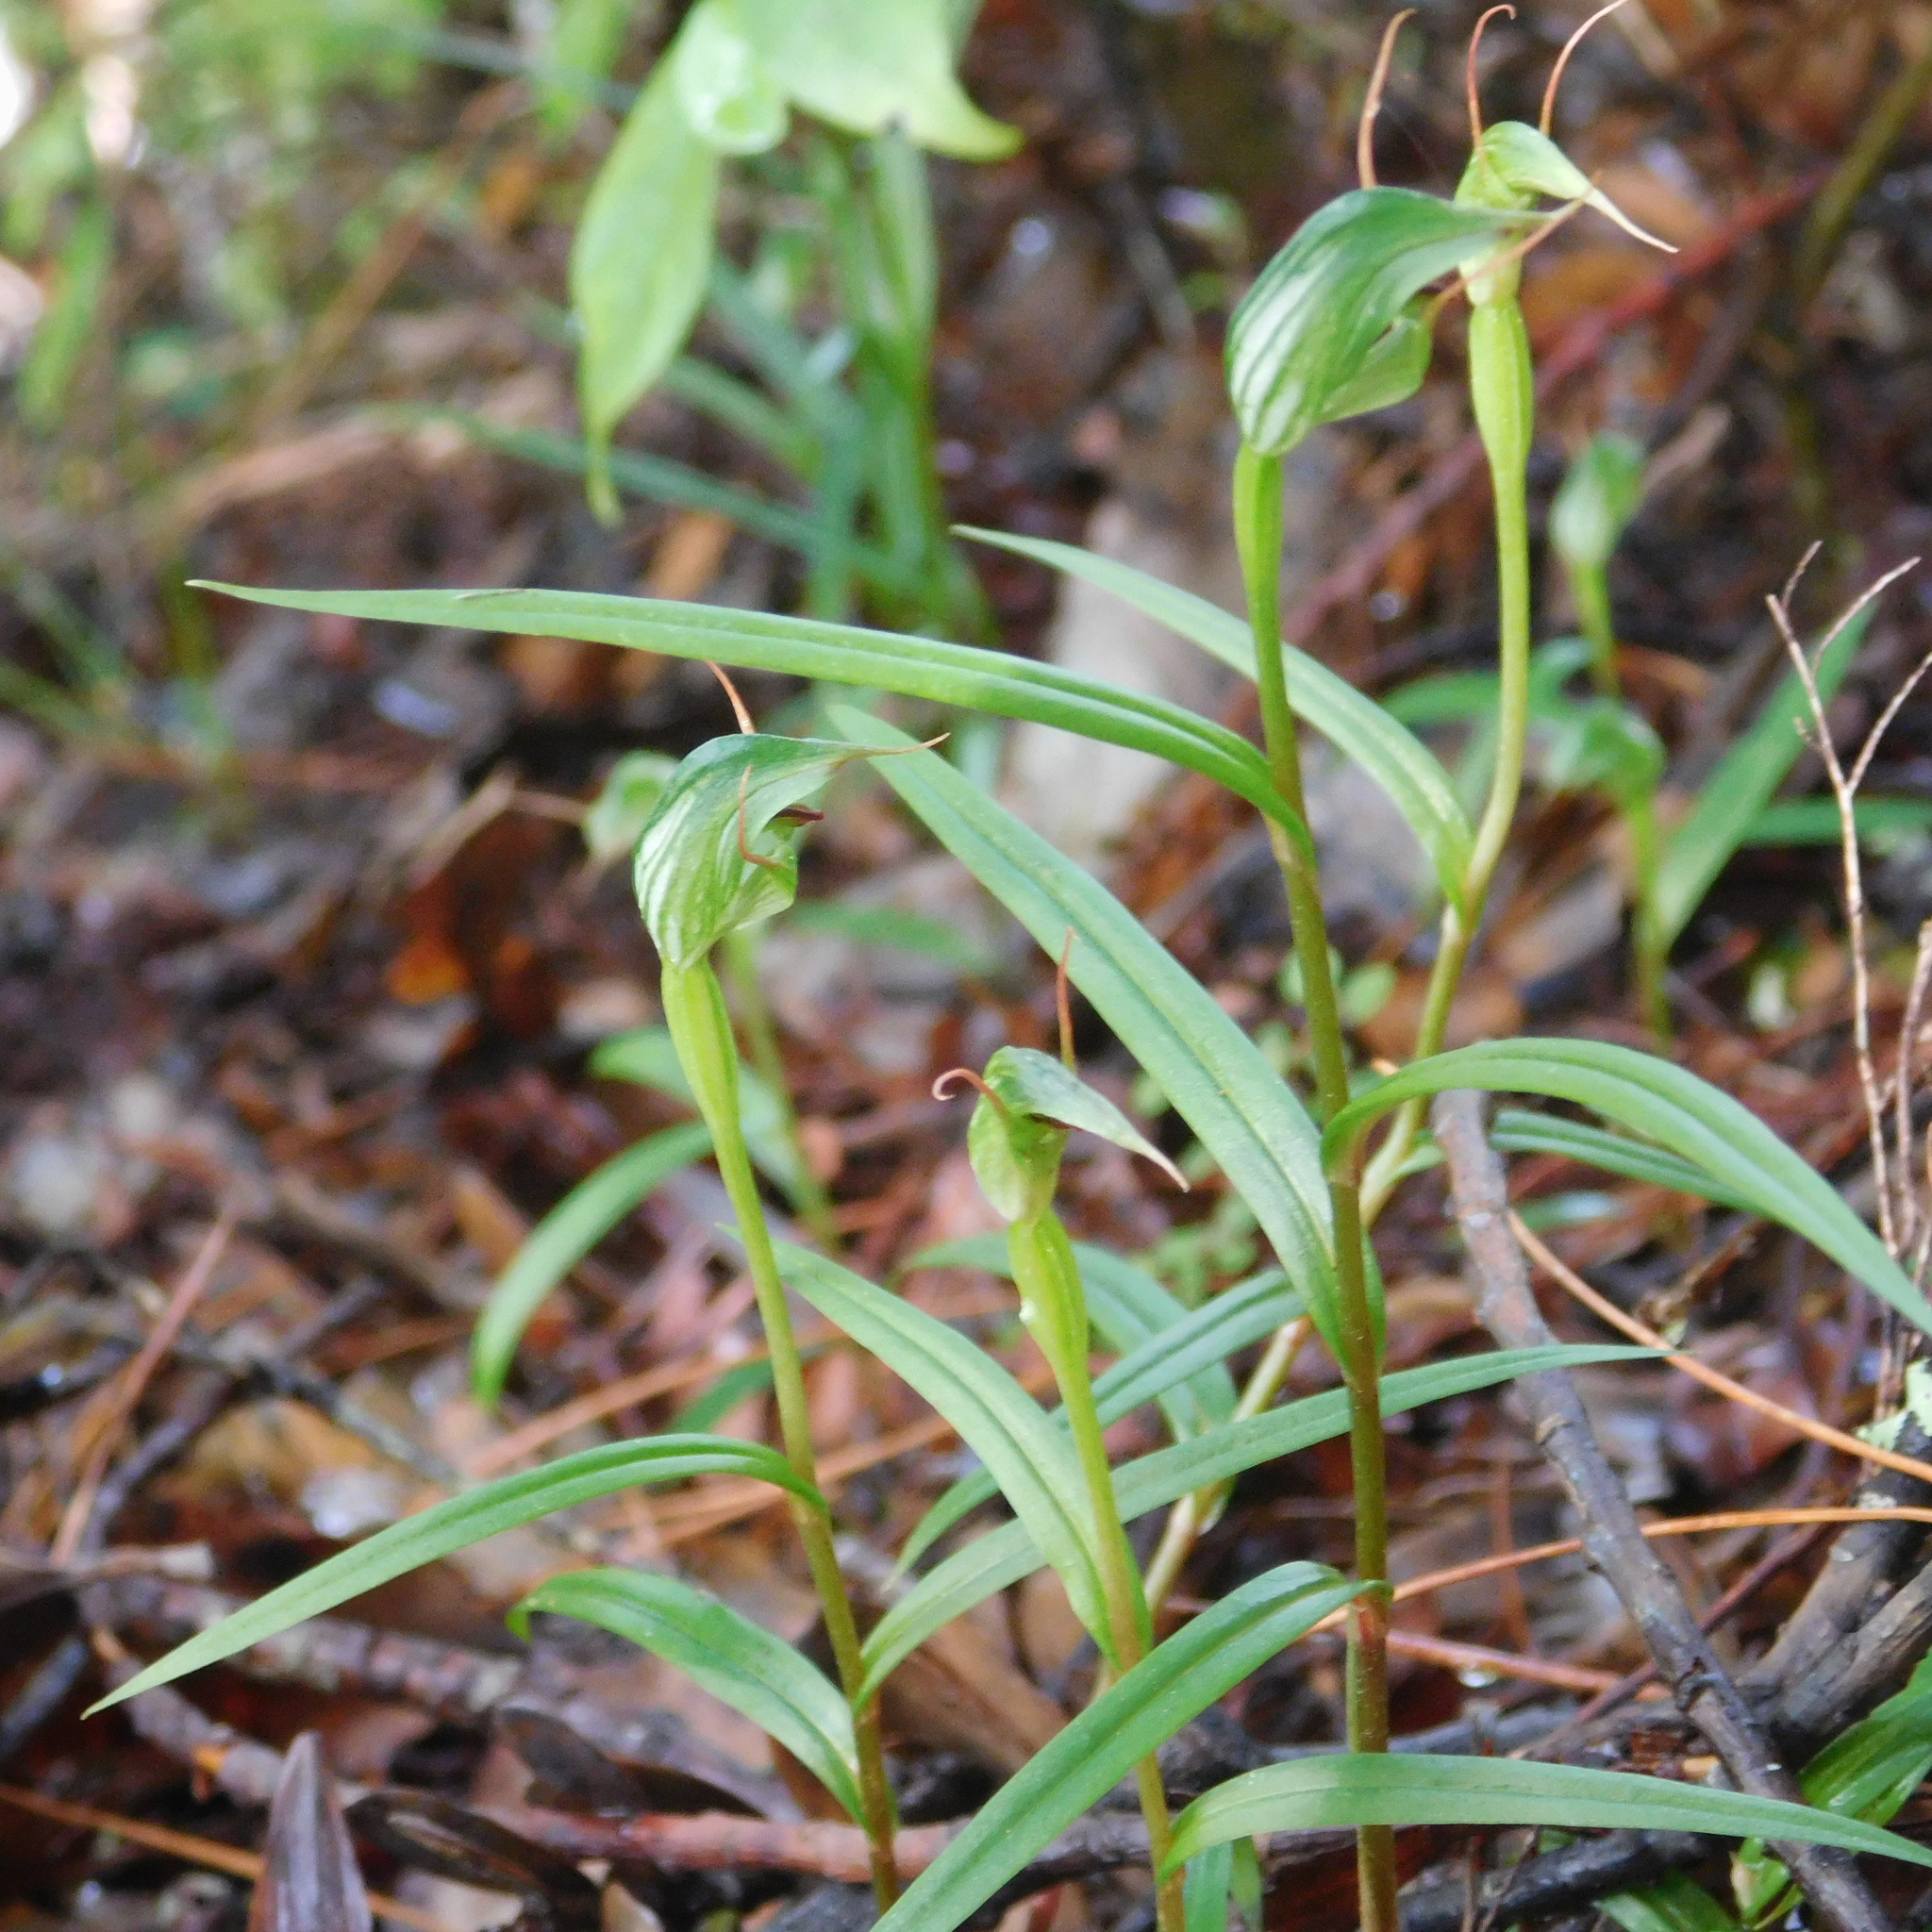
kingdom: Plantae
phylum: Tracheophyta
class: Liliopsida
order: Asparagales
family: Orchidaceae
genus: Pterostylis
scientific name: Pterostylis agathicola
